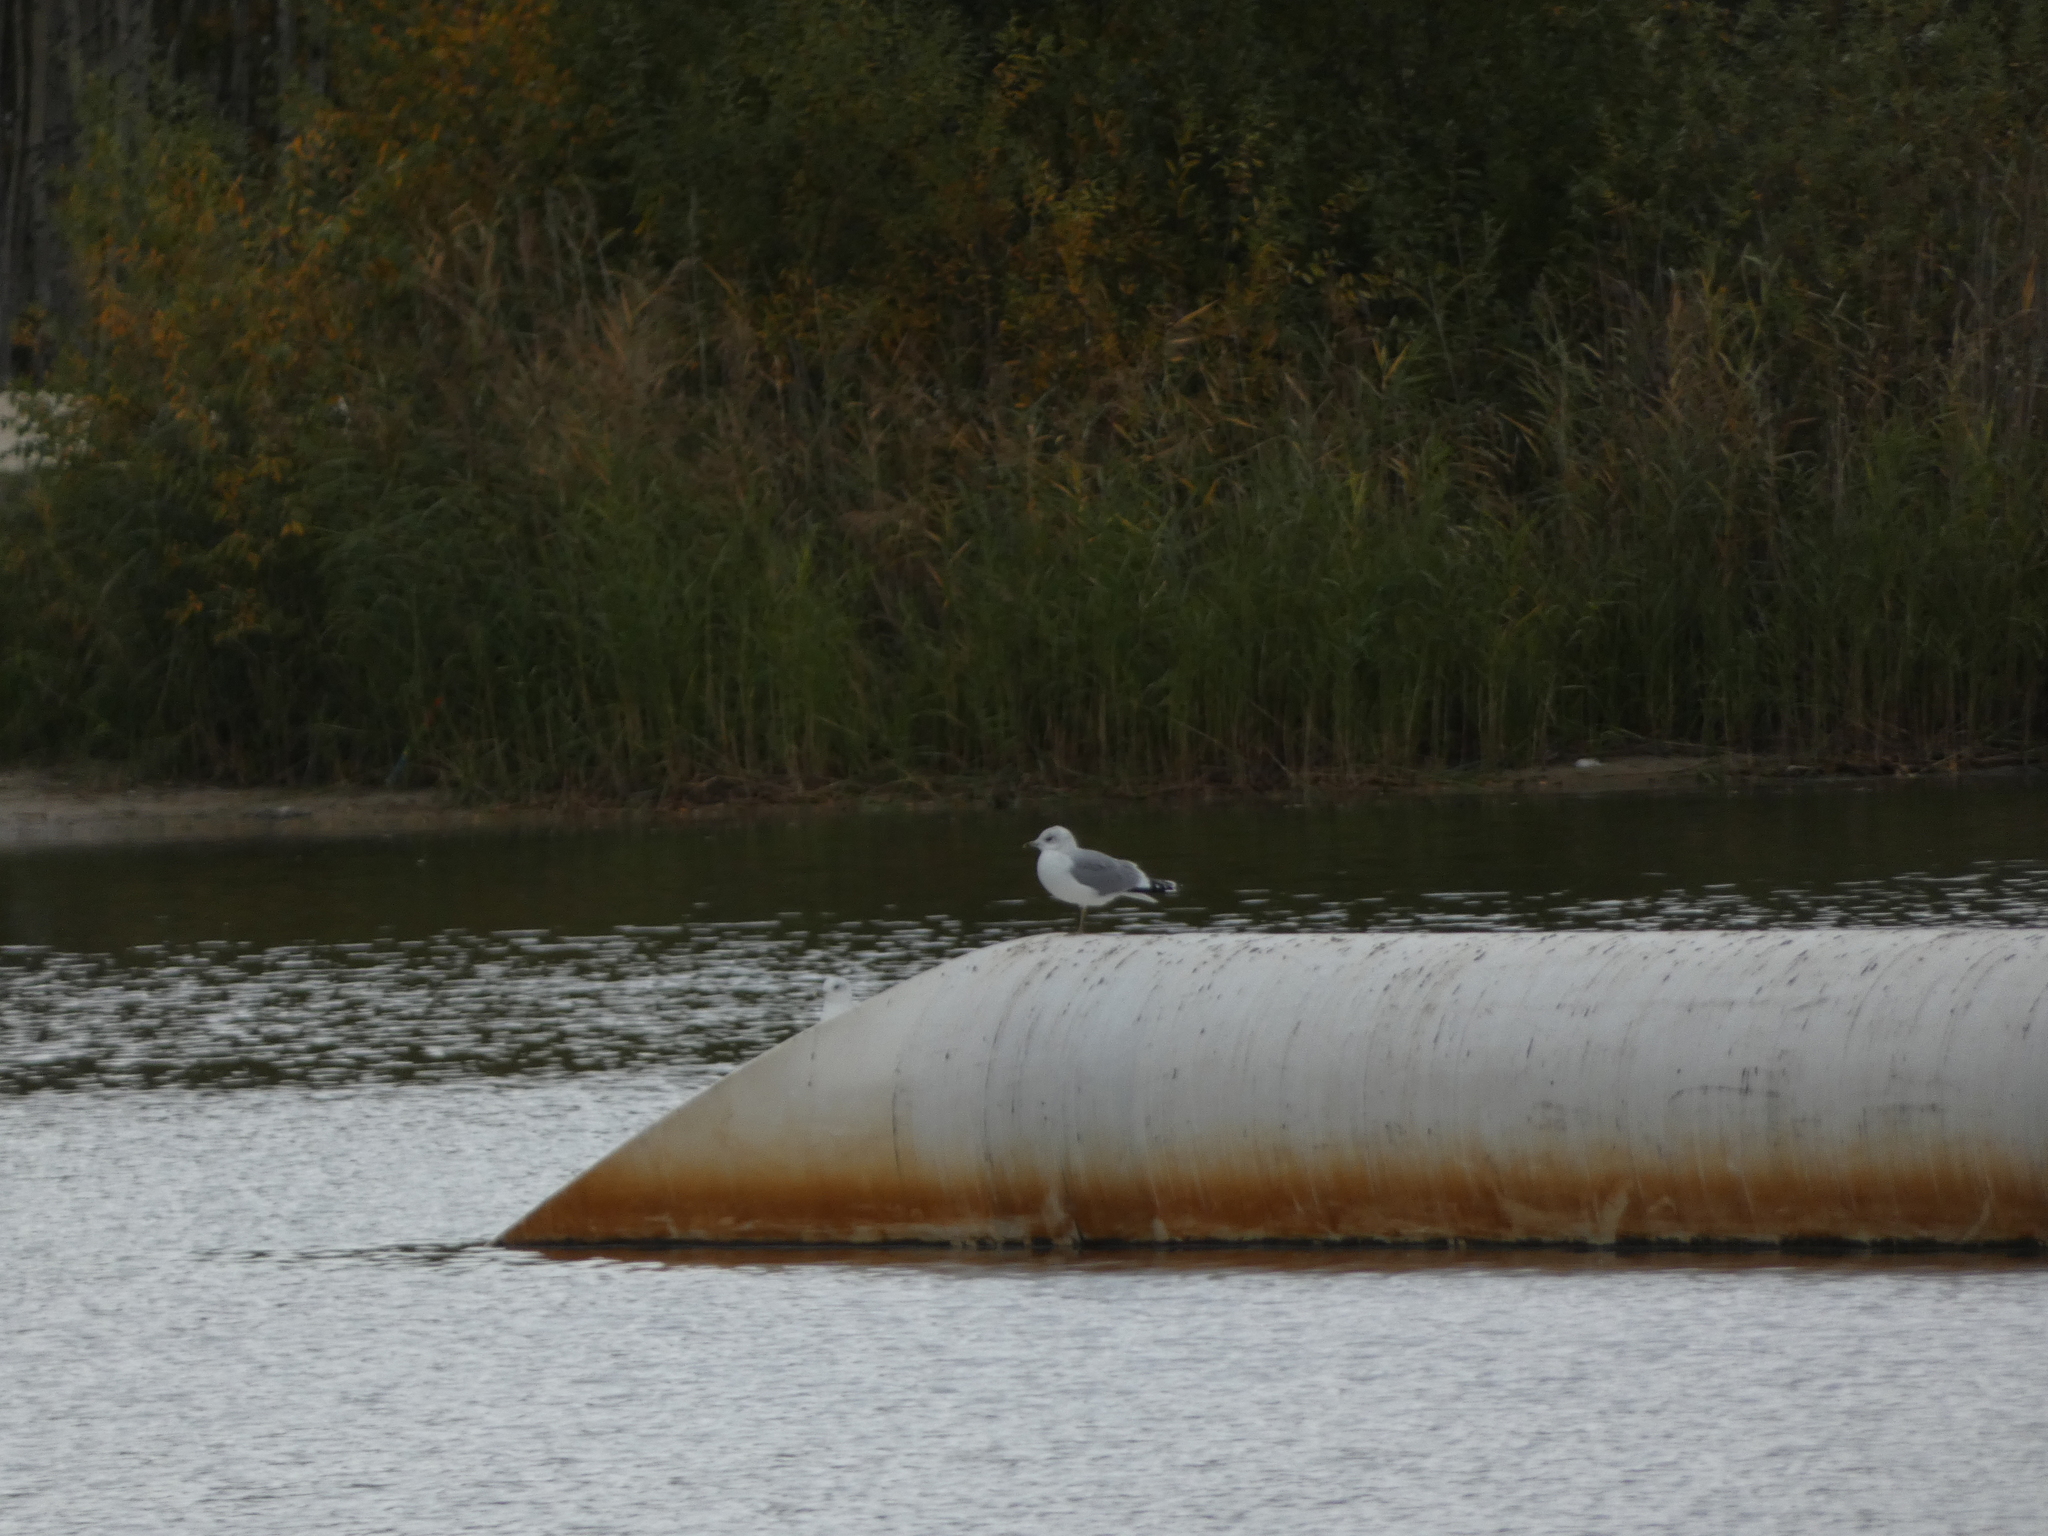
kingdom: Animalia
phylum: Chordata
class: Aves
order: Charadriiformes
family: Laridae
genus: Larus
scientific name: Larus canus
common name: Mew gull
